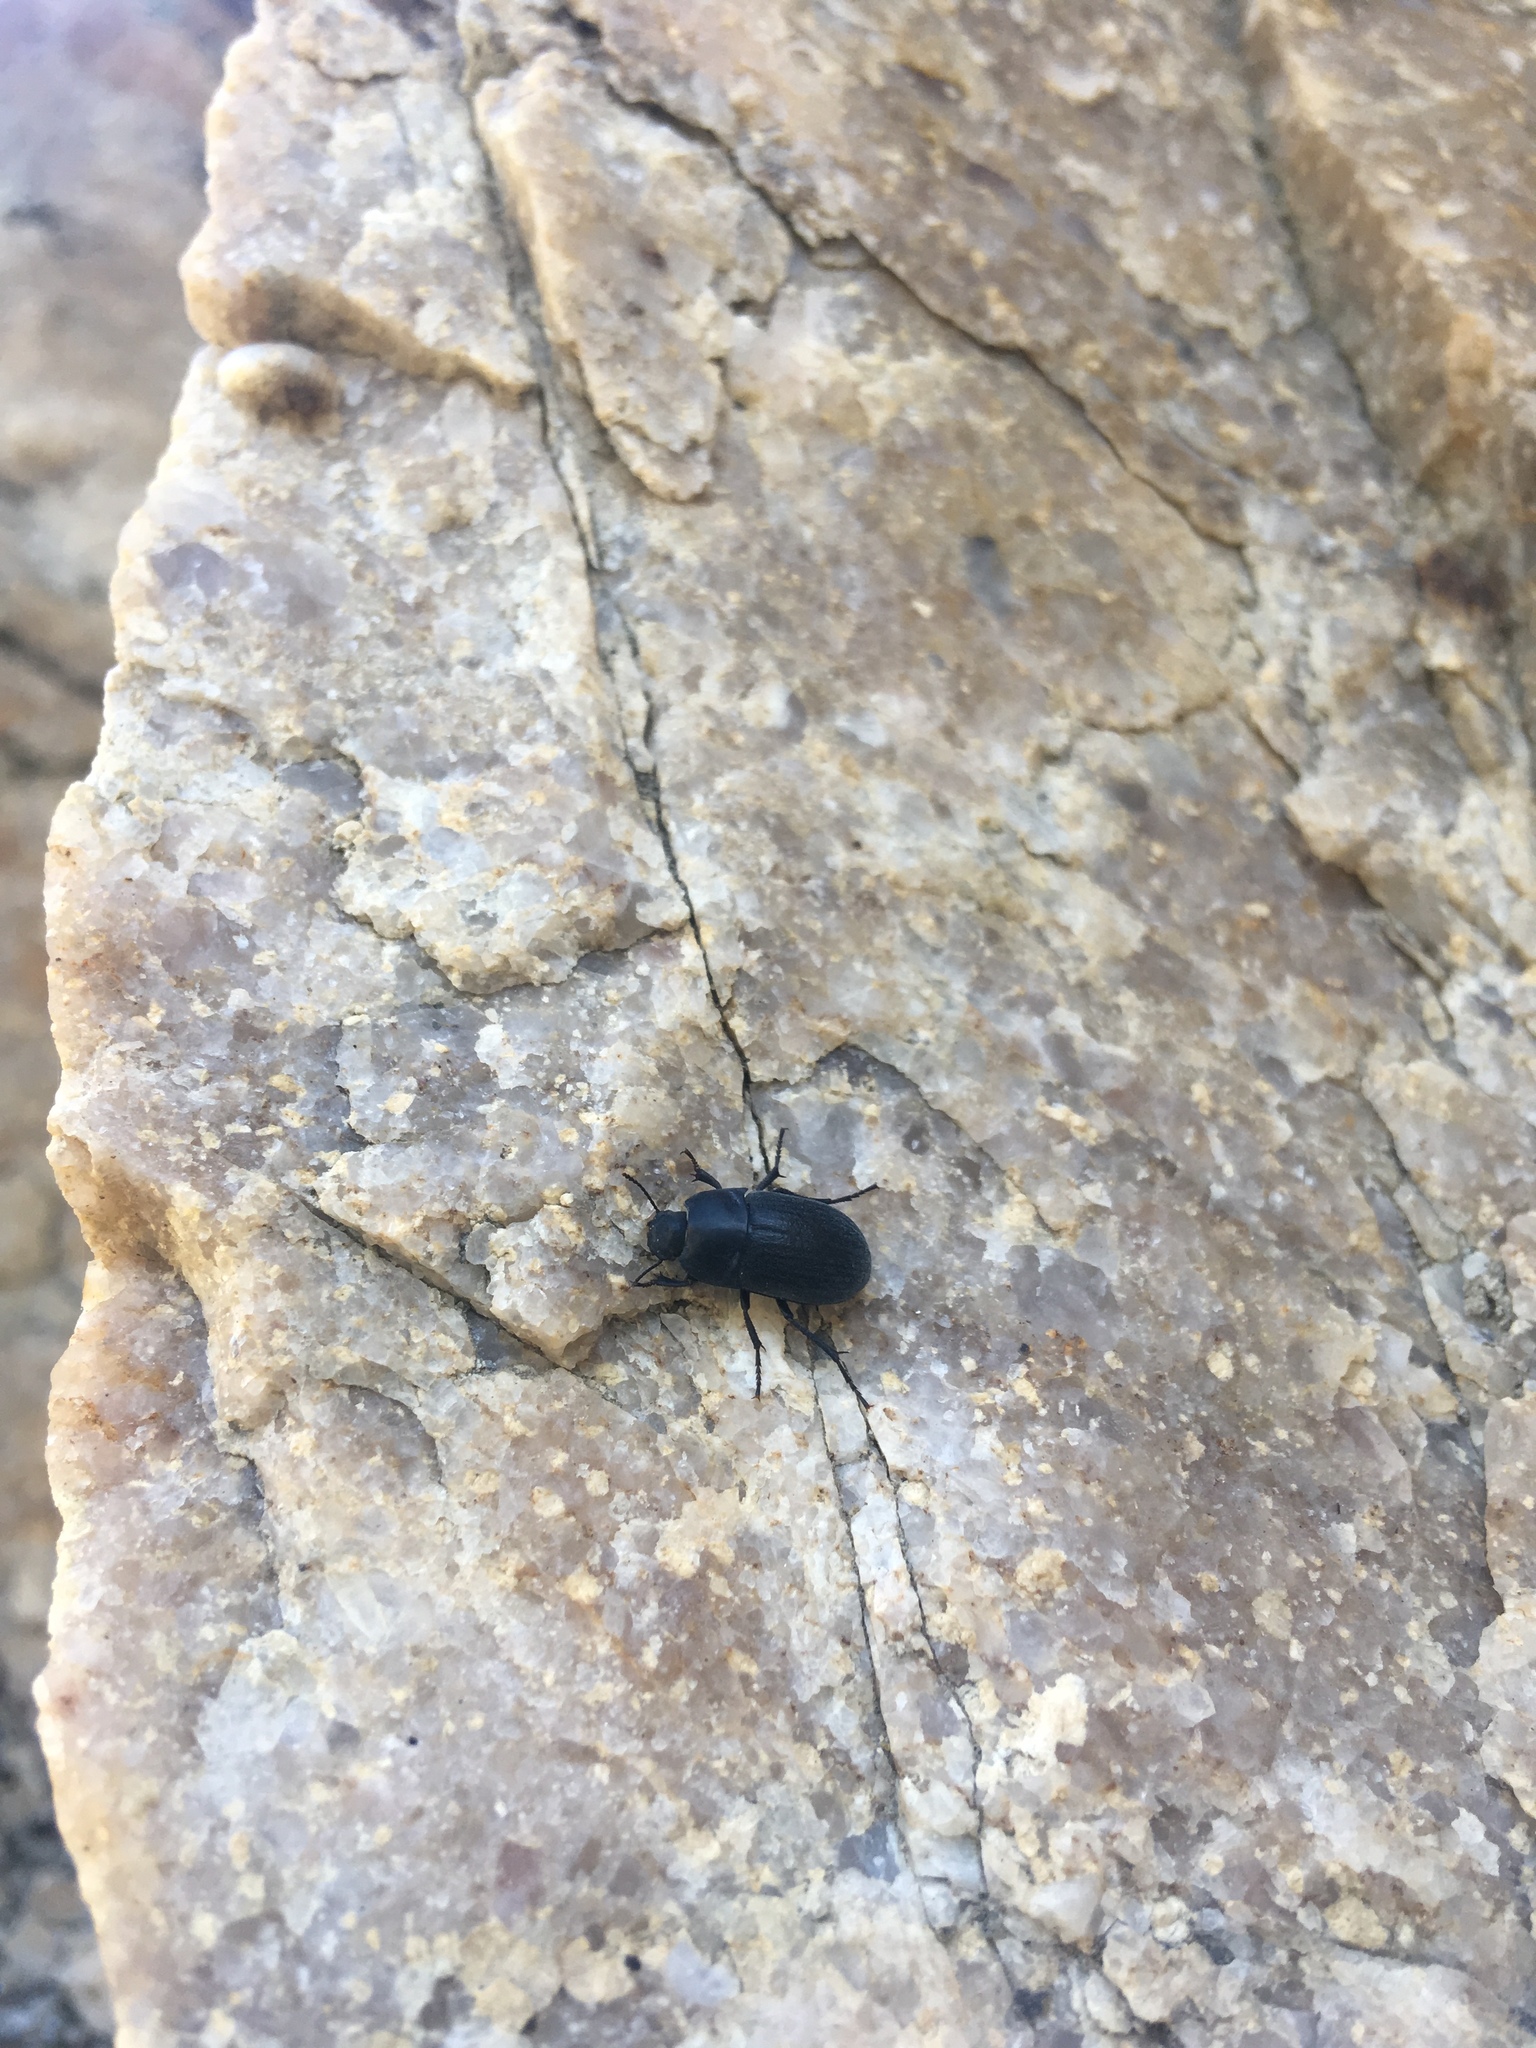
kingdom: Animalia
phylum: Arthropoda
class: Insecta
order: Coleoptera
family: Tenebrionidae
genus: Coniontis
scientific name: Coniontis
